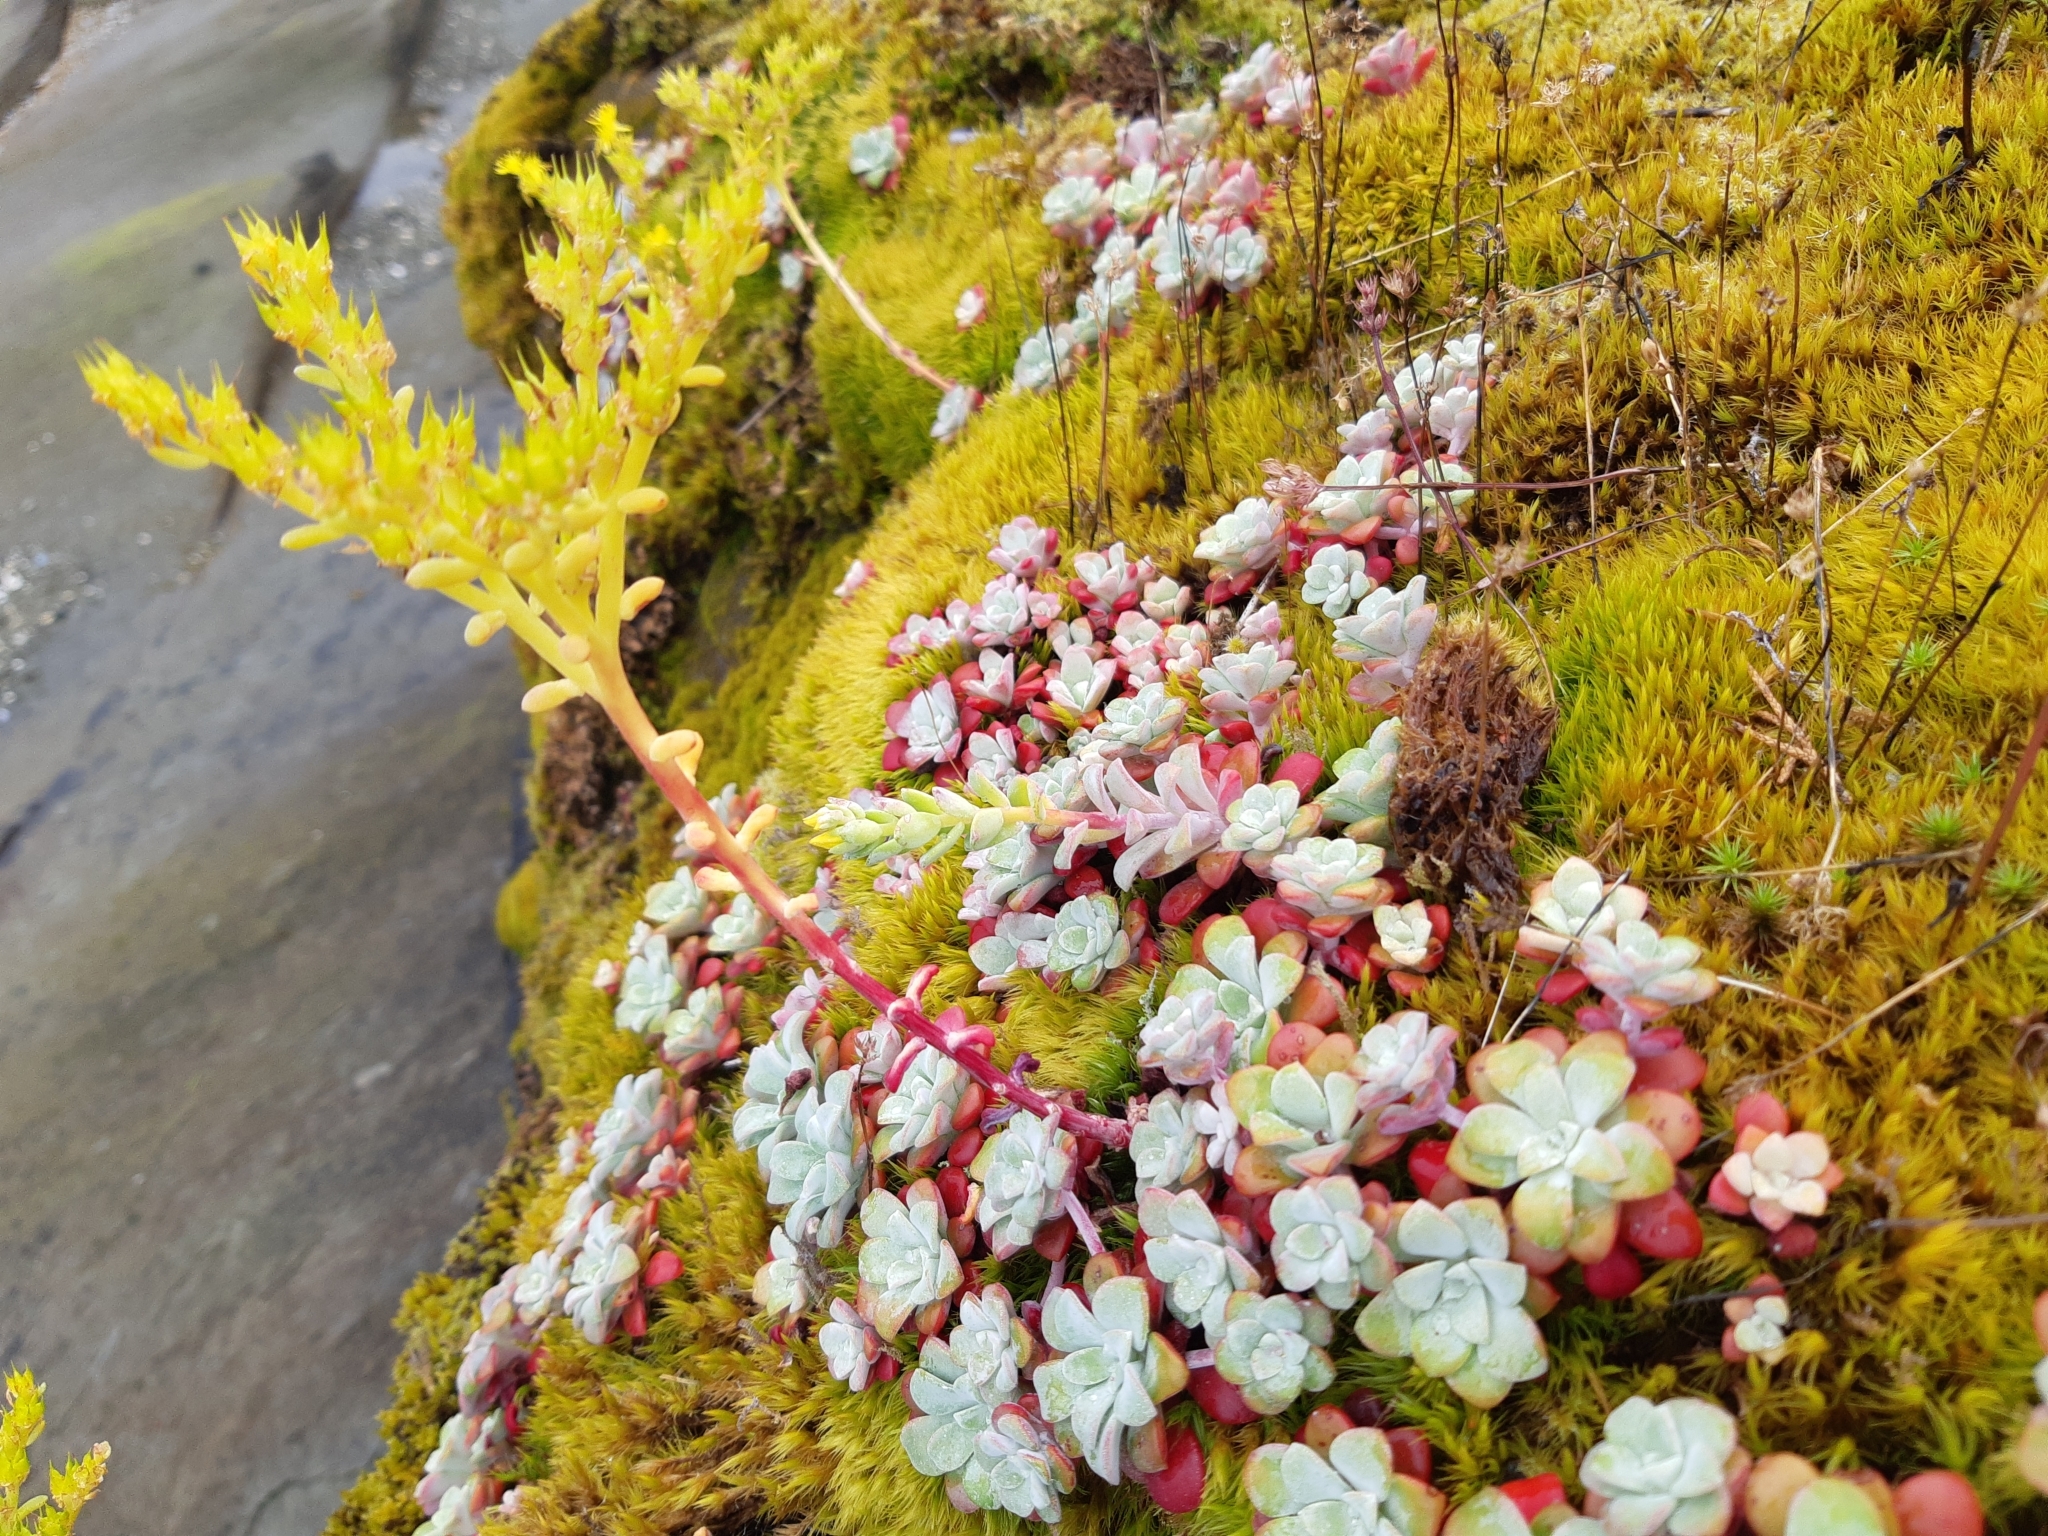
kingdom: Plantae
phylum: Tracheophyta
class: Magnoliopsida
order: Saxifragales
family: Crassulaceae
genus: Sedum
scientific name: Sedum spathulifolium
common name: Colorado stonecrop
